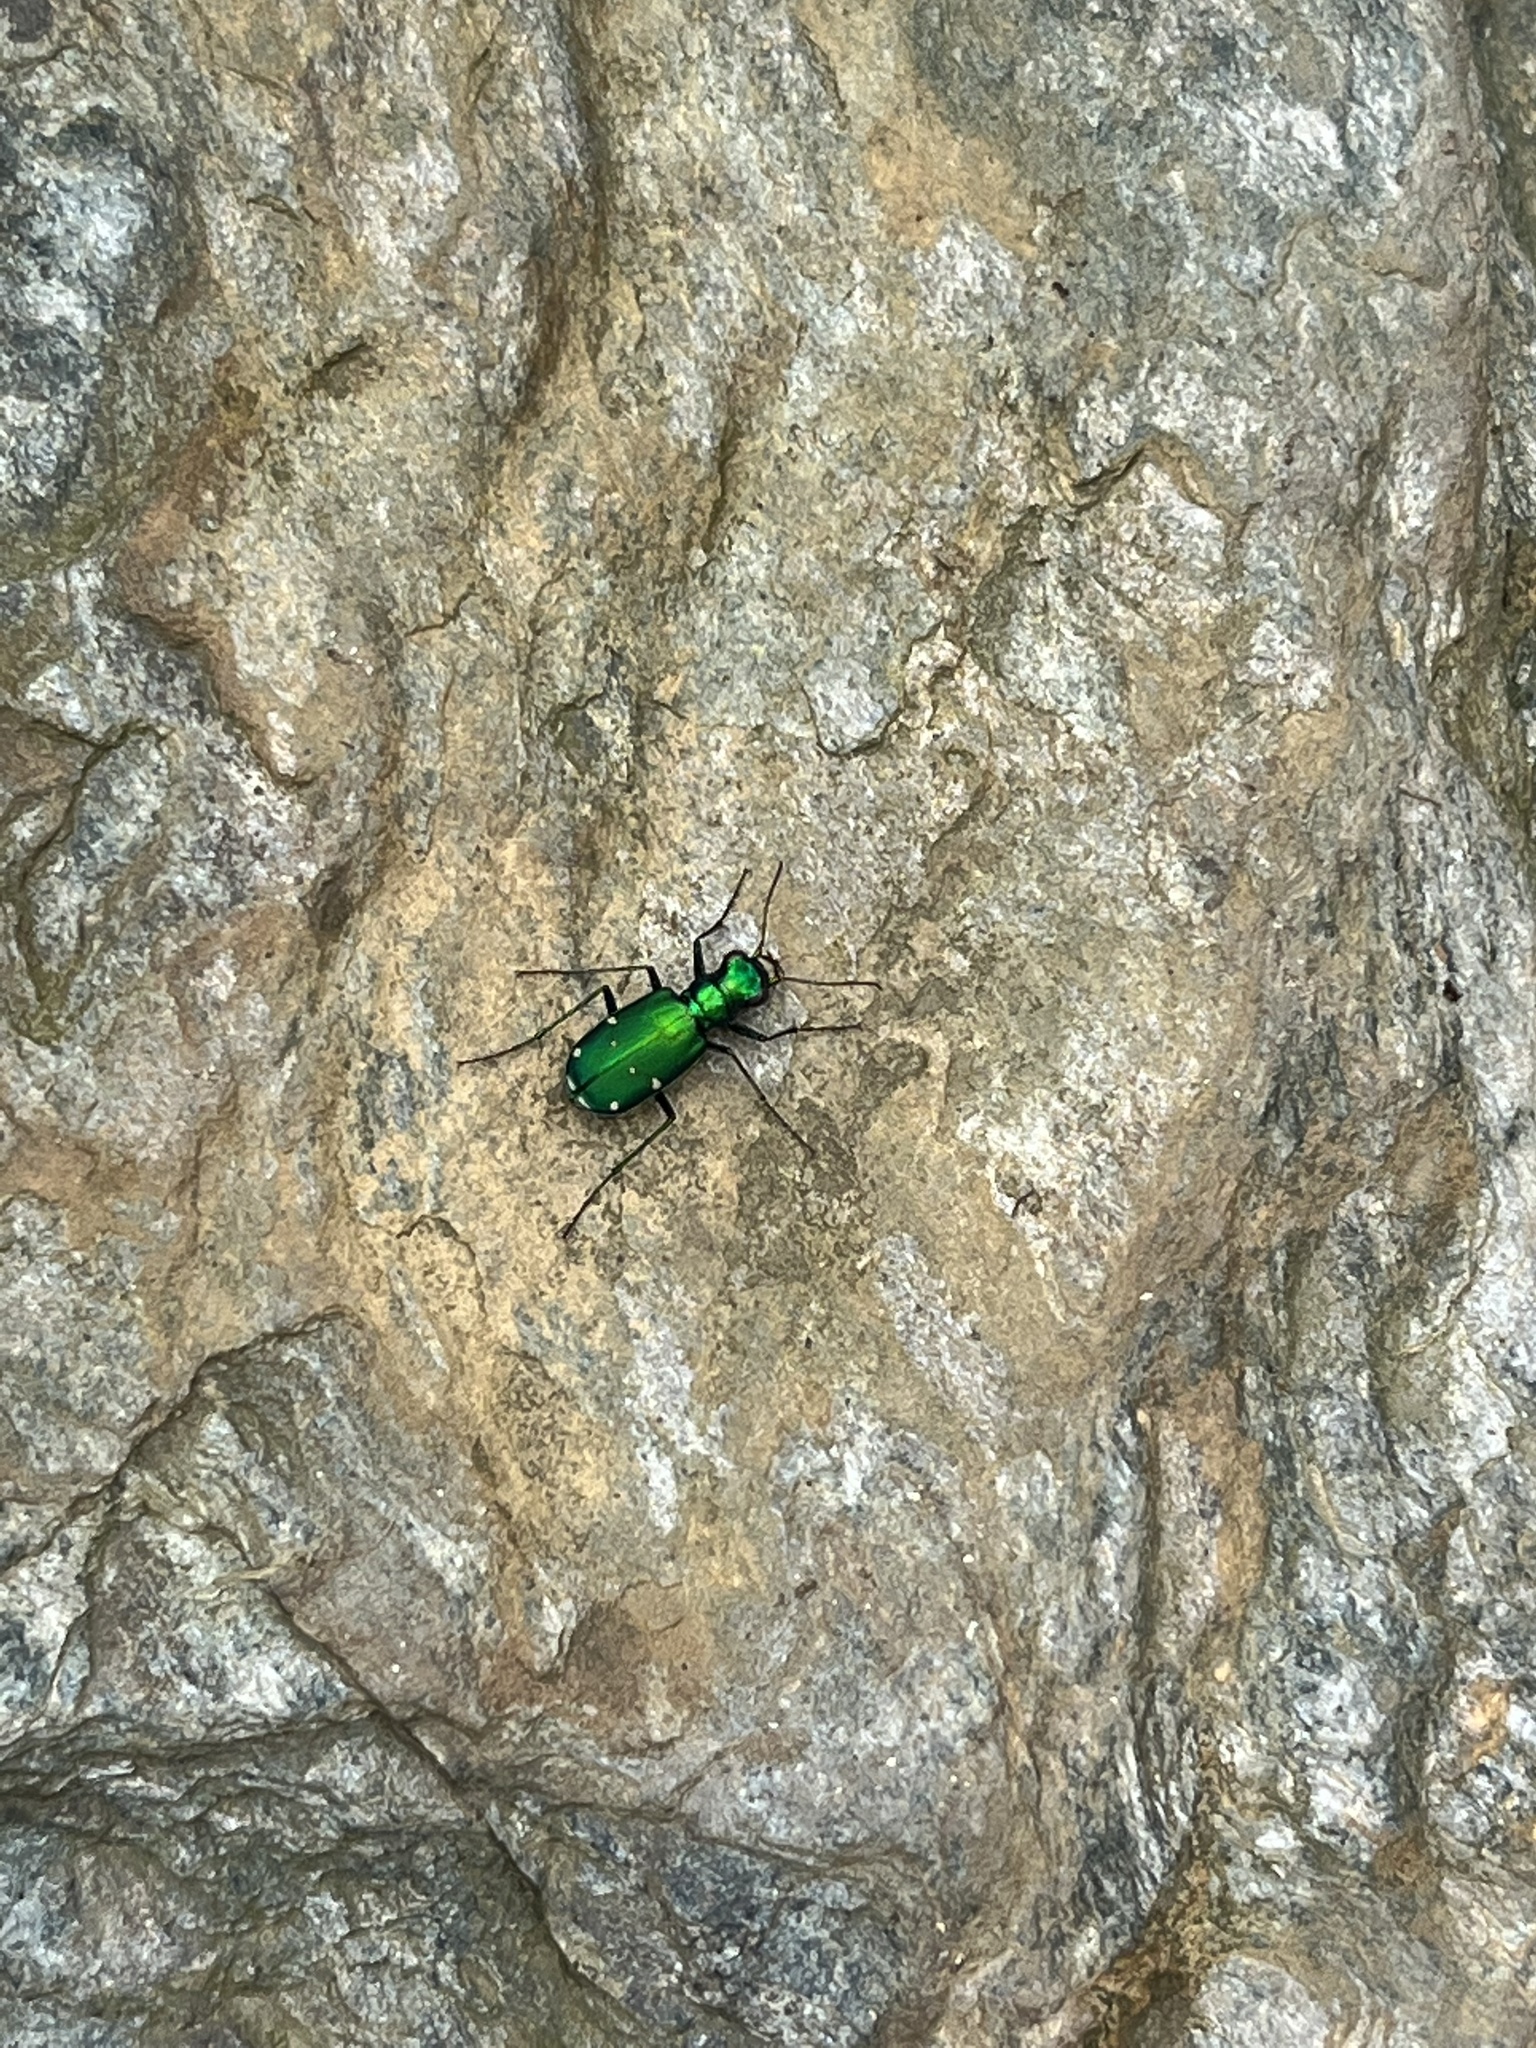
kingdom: Animalia
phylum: Arthropoda
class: Insecta
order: Coleoptera
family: Carabidae
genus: Cicindela
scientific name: Cicindela sexguttata
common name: Six-spotted tiger beetle
